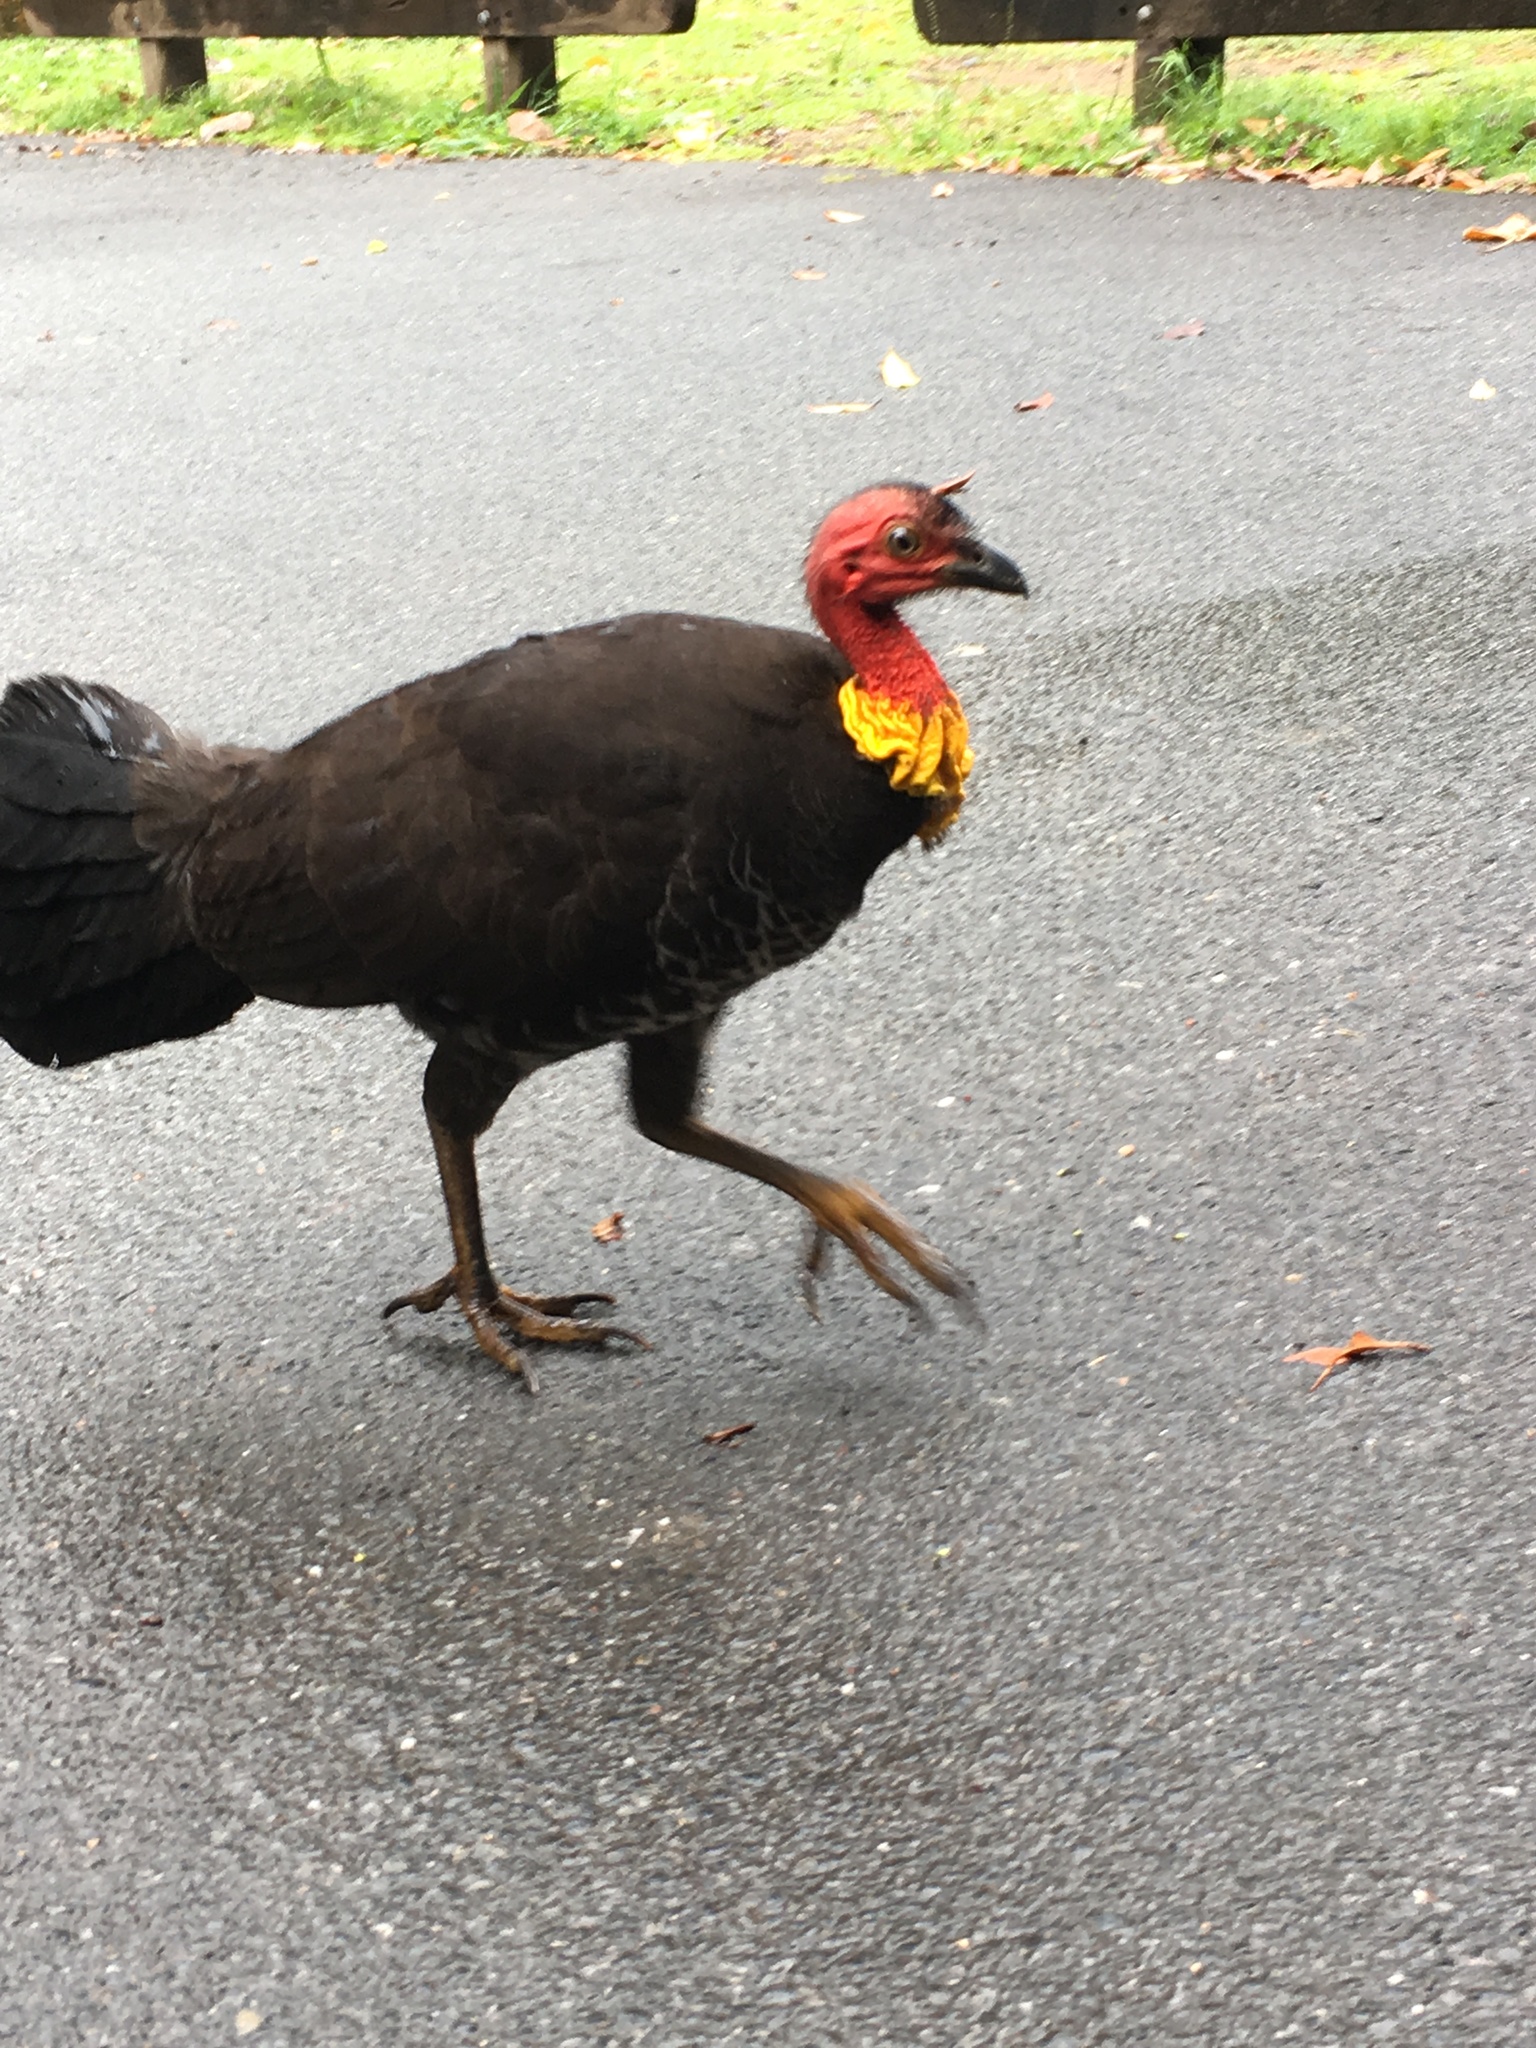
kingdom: Animalia
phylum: Chordata
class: Aves
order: Galliformes
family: Megapodiidae
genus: Alectura
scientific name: Alectura lathami
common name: Australian brushturkey
